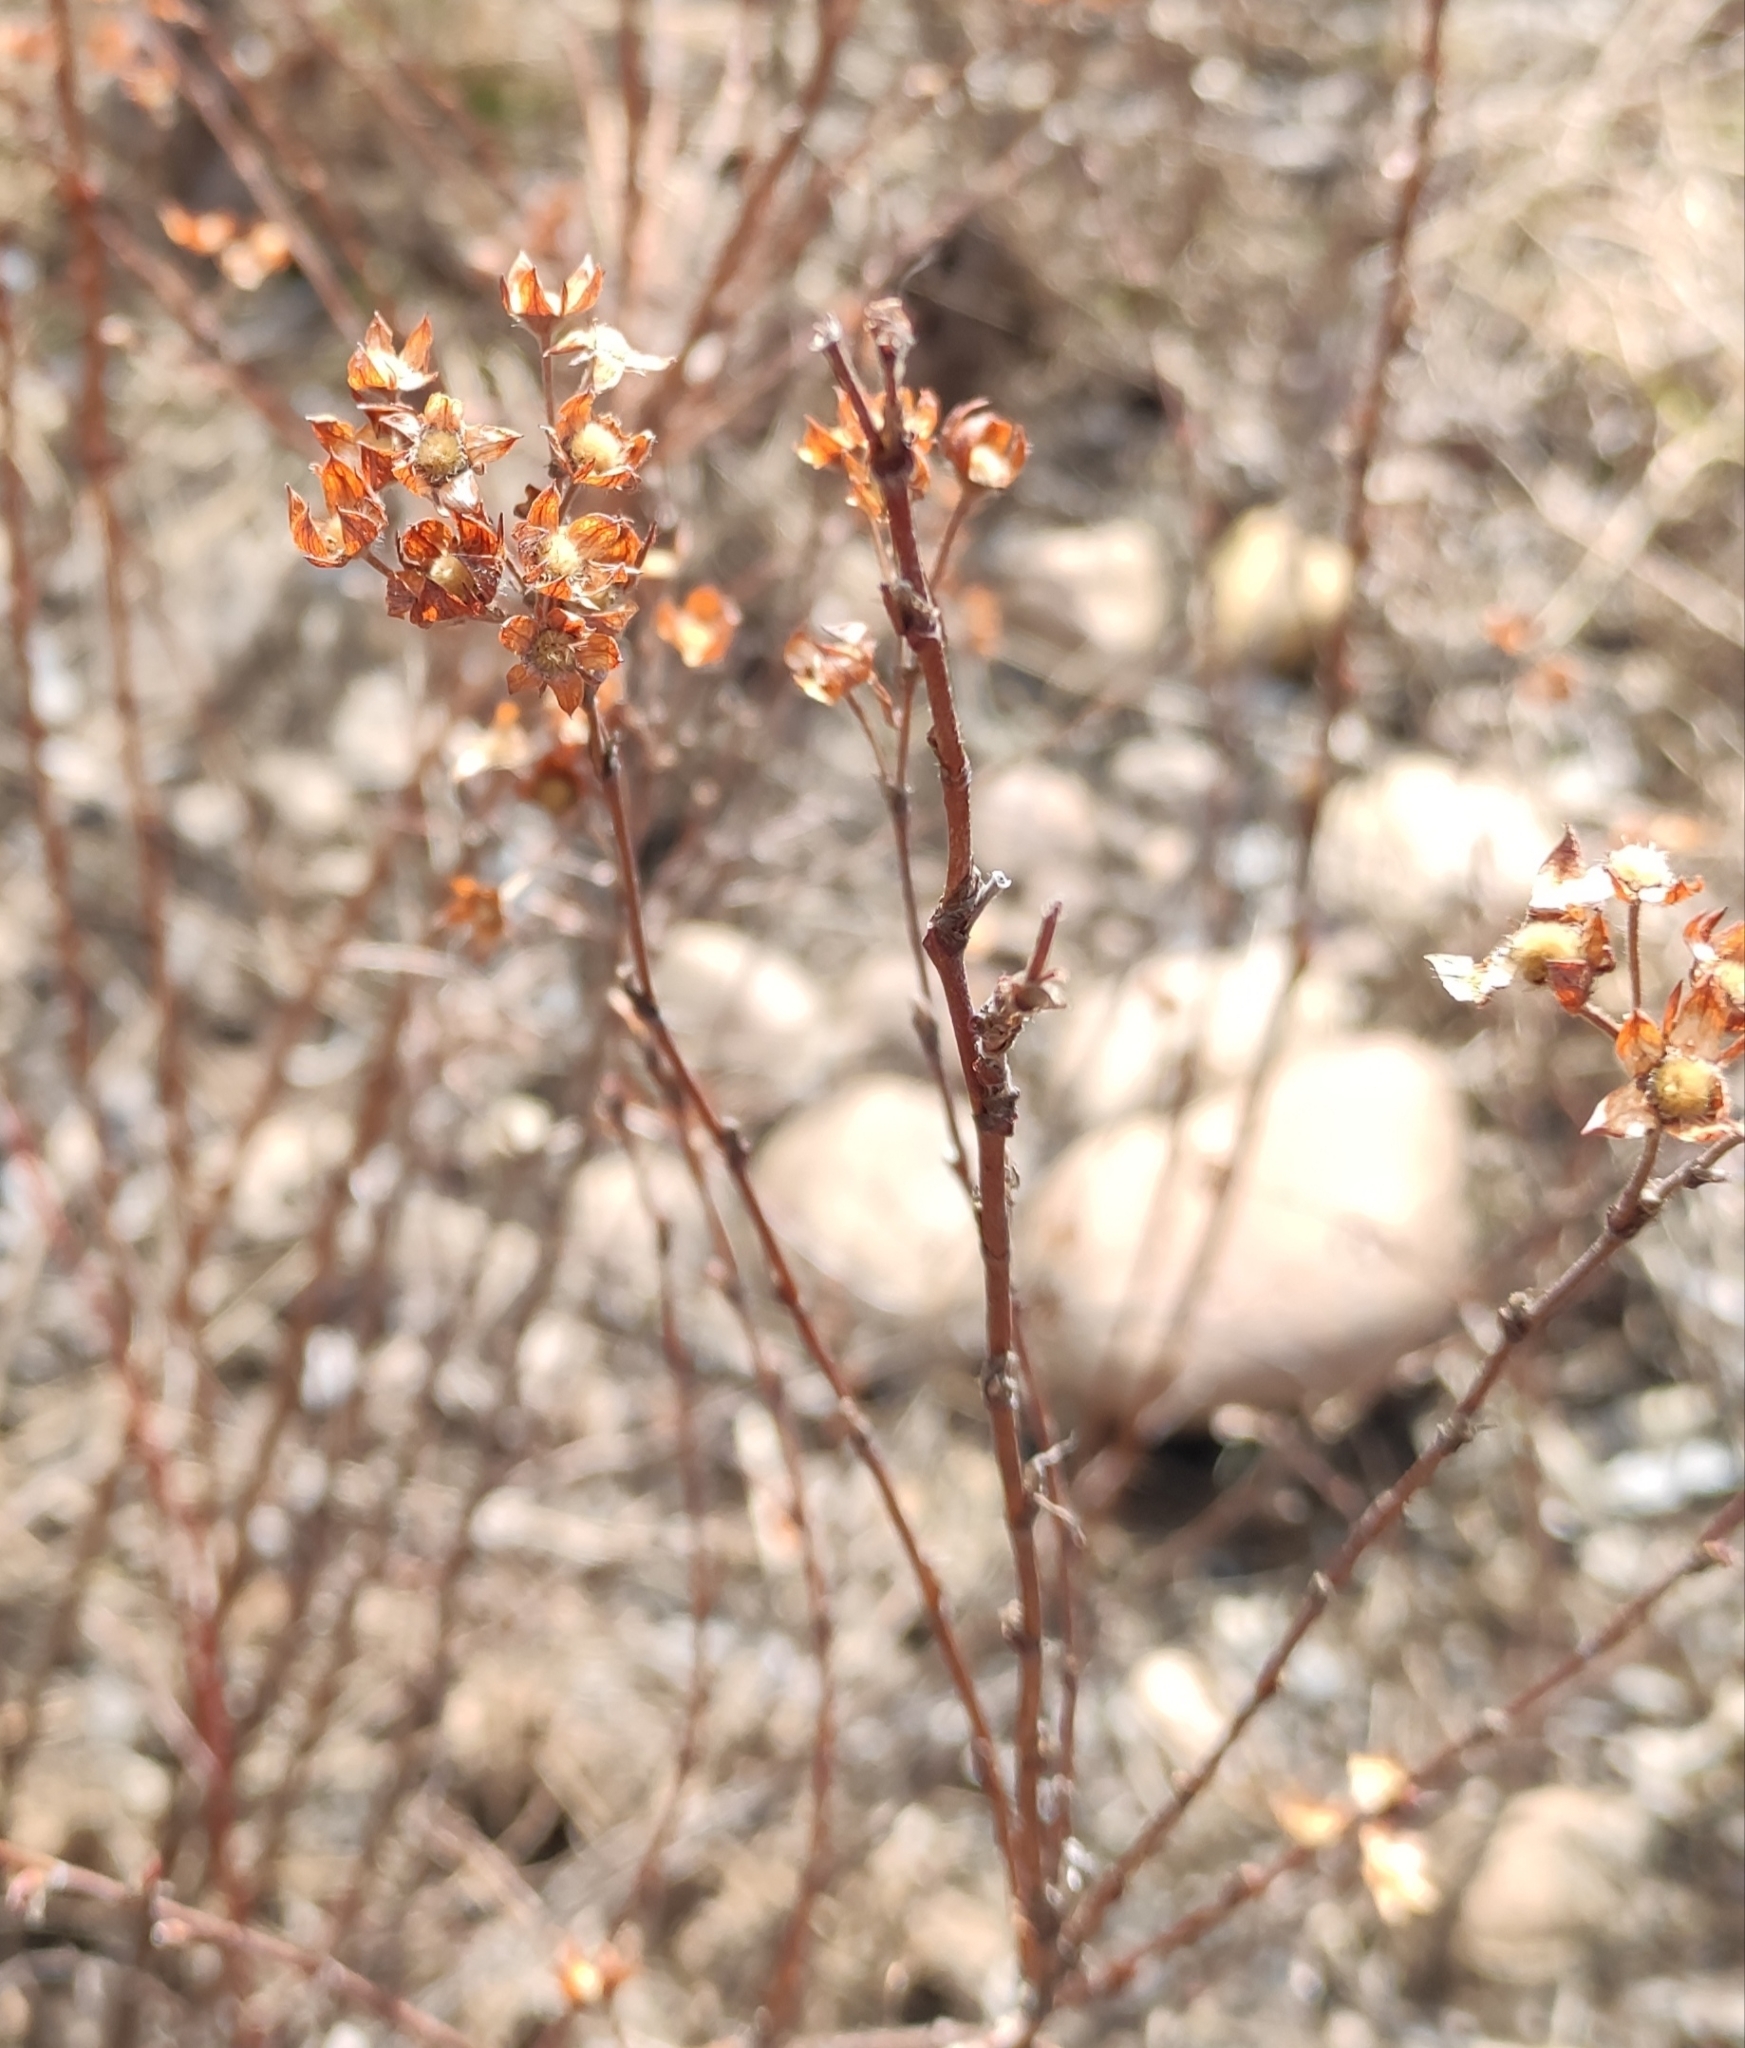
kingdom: Plantae
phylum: Tracheophyta
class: Magnoliopsida
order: Rosales
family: Rosaceae
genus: Dasiphora
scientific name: Dasiphora fruticosa
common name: Shrubby cinquefoil
